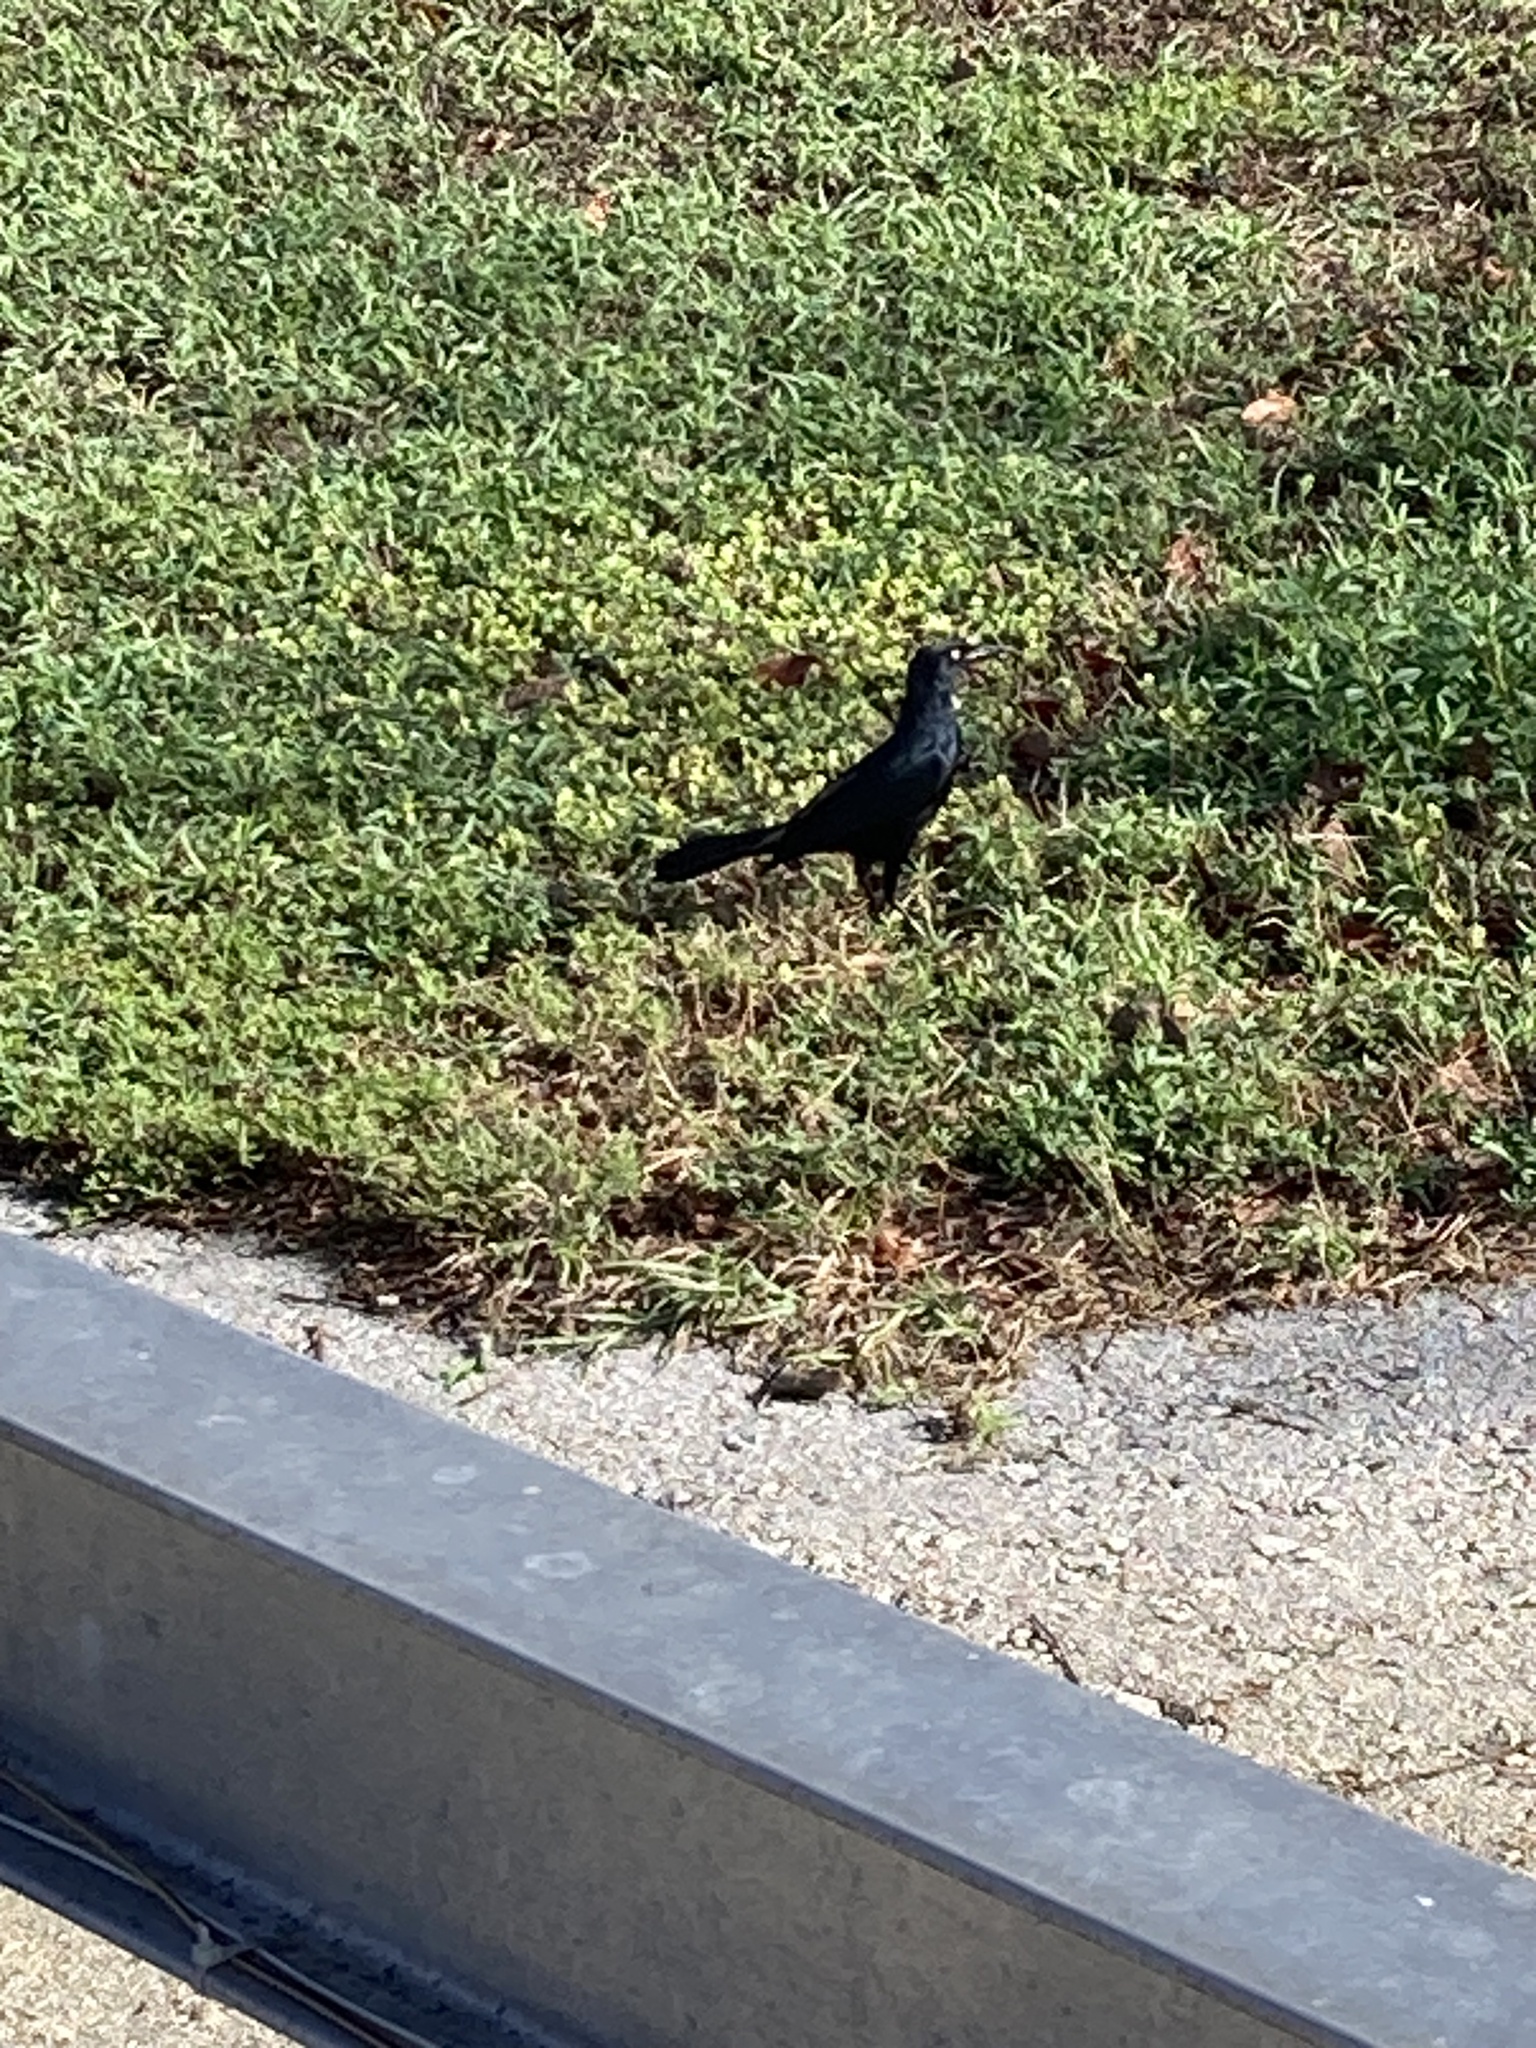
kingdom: Animalia
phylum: Chordata
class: Aves
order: Passeriformes
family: Icteridae
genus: Quiscalus
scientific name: Quiscalus niger
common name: Greater antillean grackle
